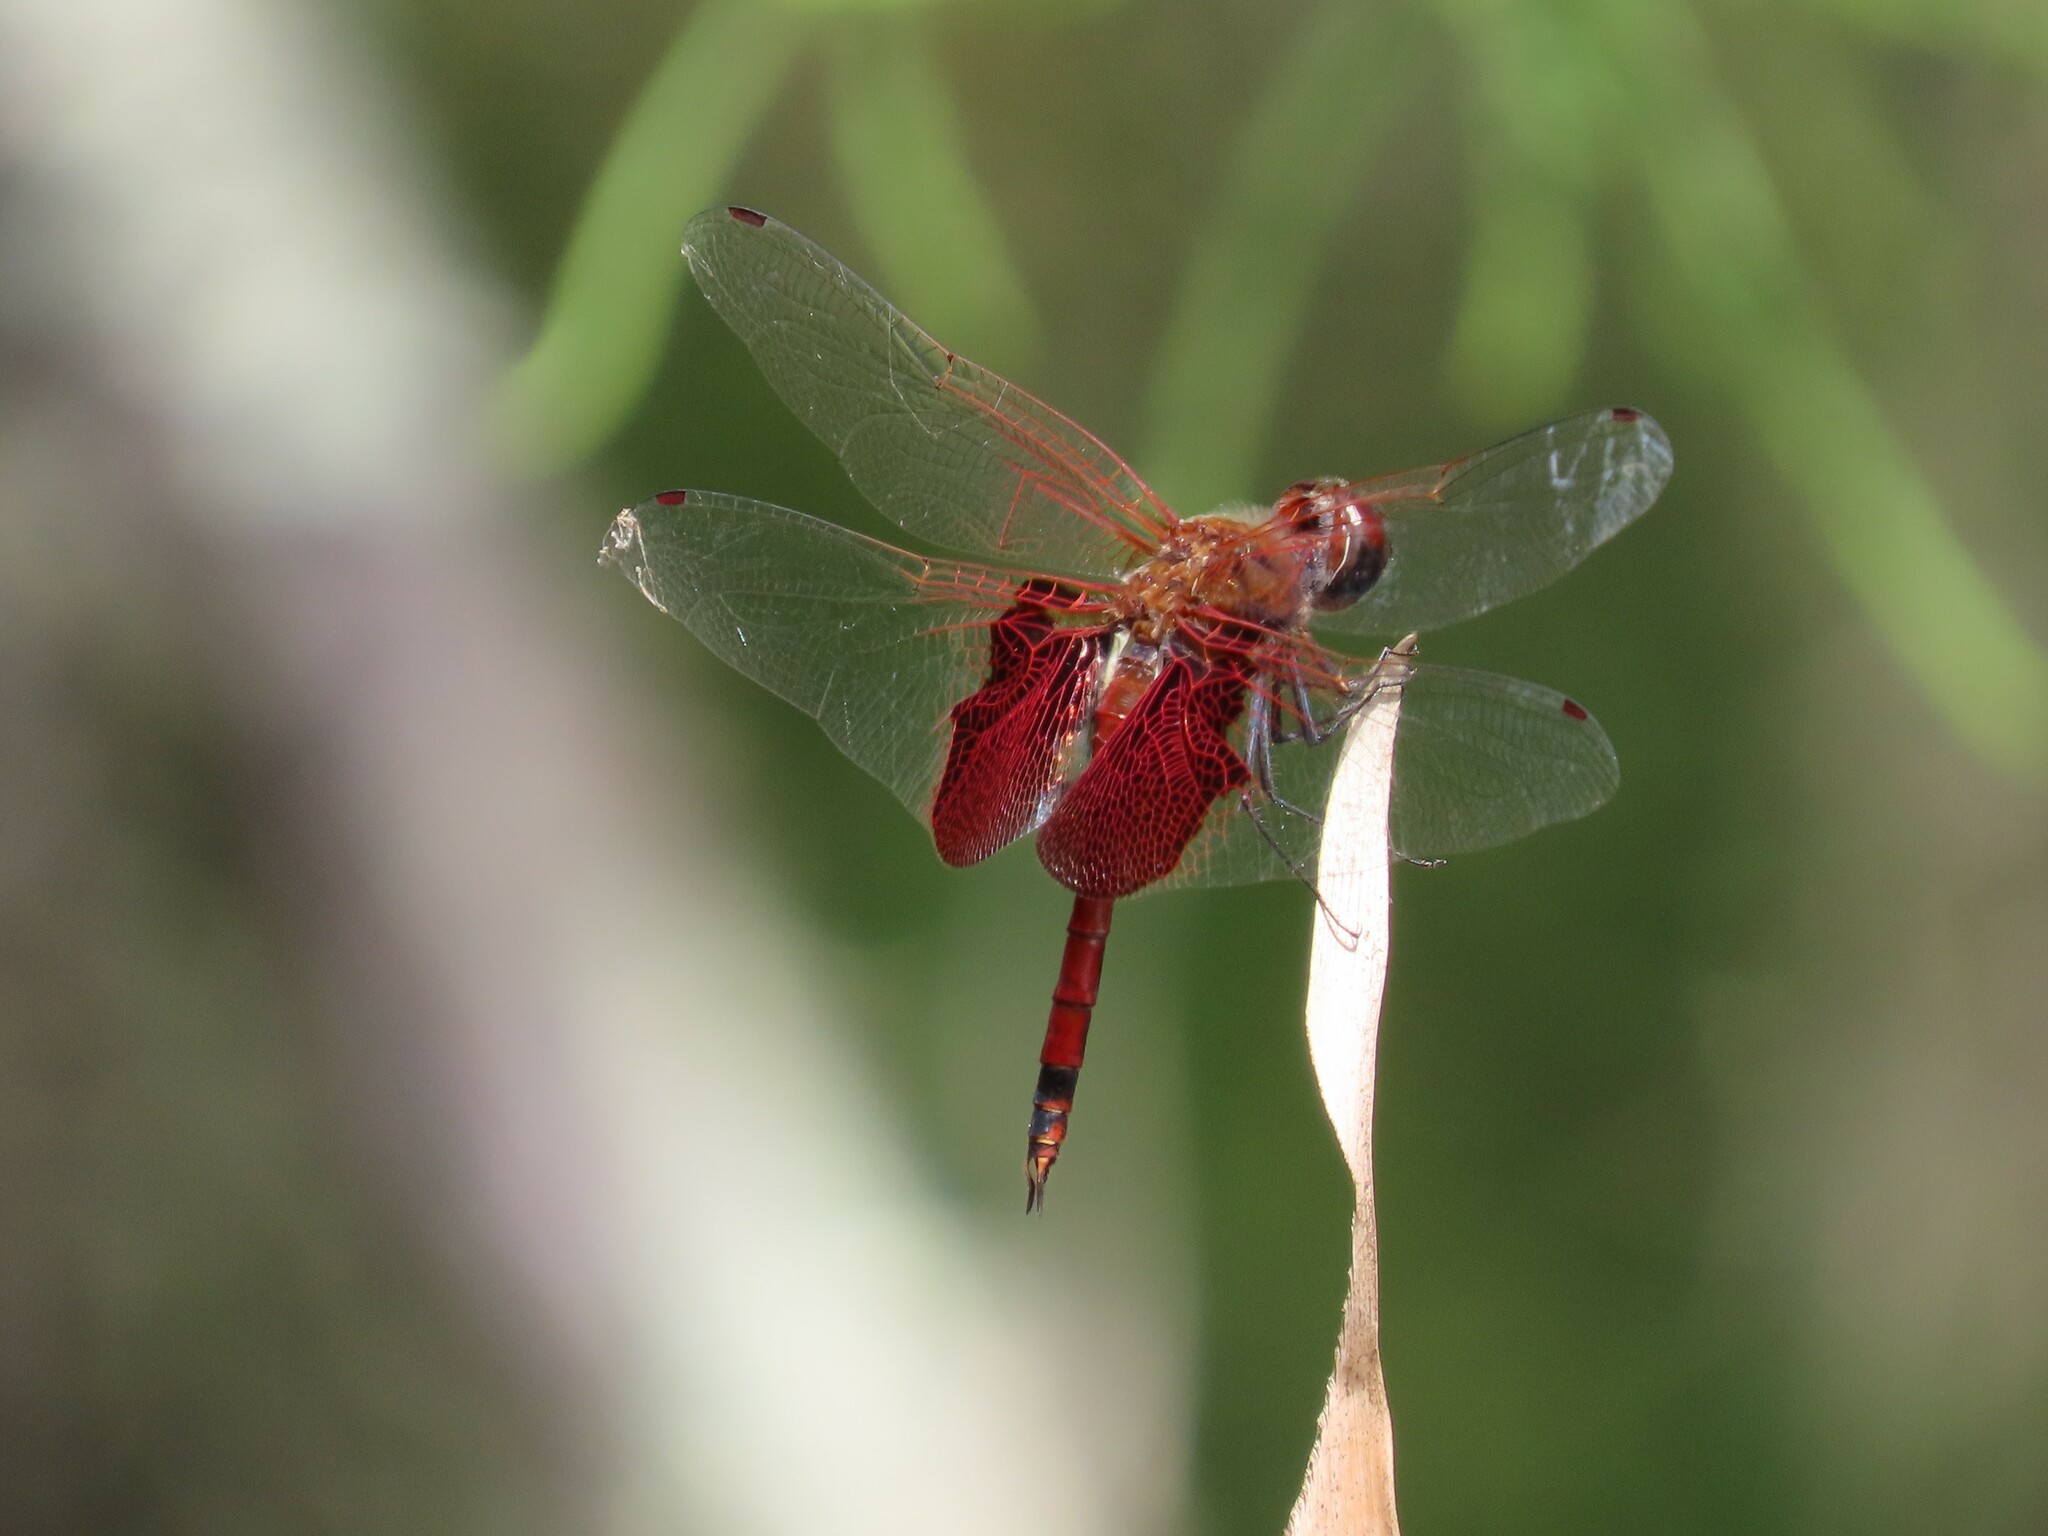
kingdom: Animalia
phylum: Arthropoda
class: Insecta
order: Odonata
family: Libellulidae
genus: Tramea
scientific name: Tramea carolina
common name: Carolina saddlebags
